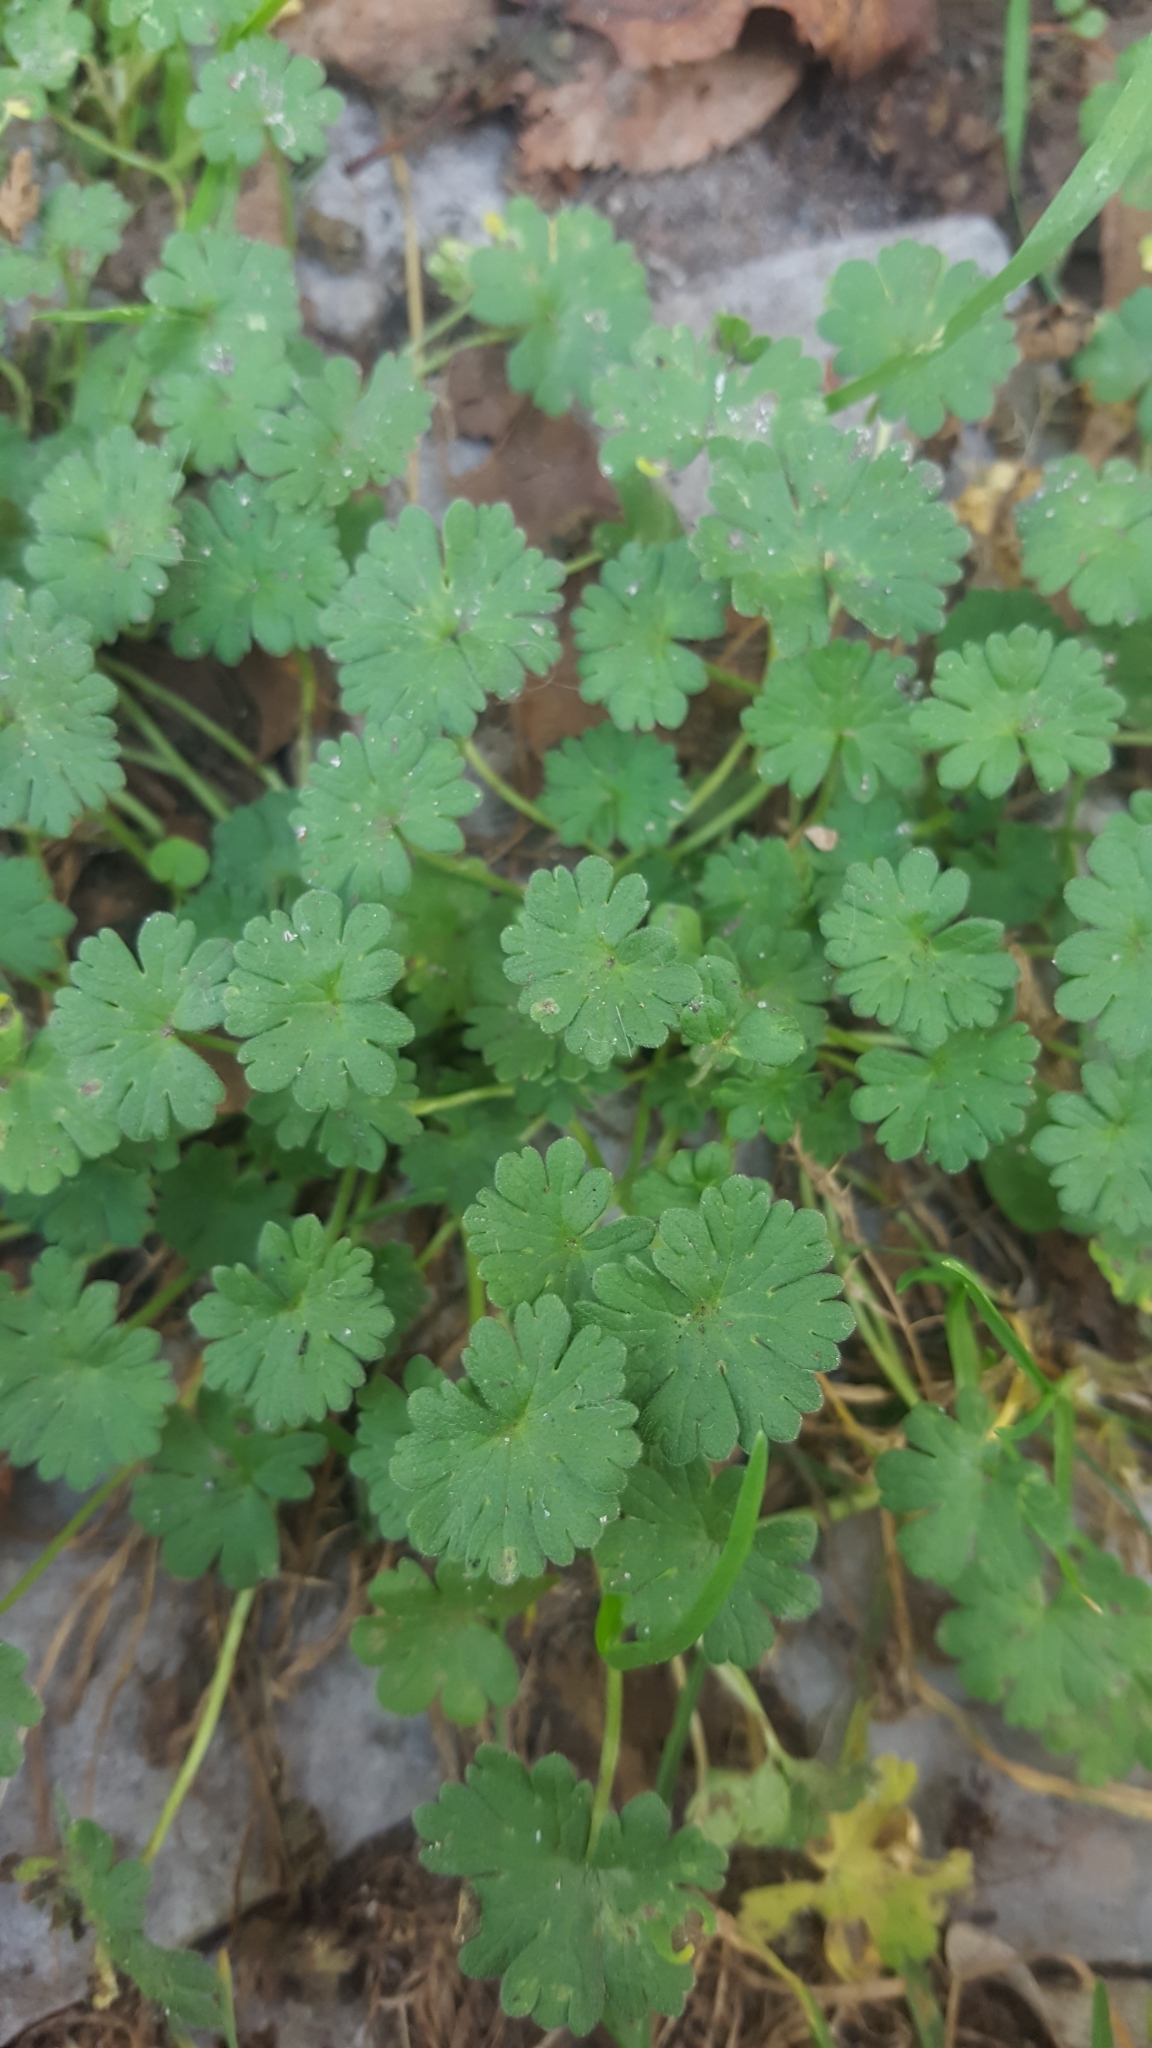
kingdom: Plantae
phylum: Tracheophyta
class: Magnoliopsida
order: Geraniales
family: Geraniaceae
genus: Geranium
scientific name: Geranium molle
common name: Dove's-foot crane's-bill
